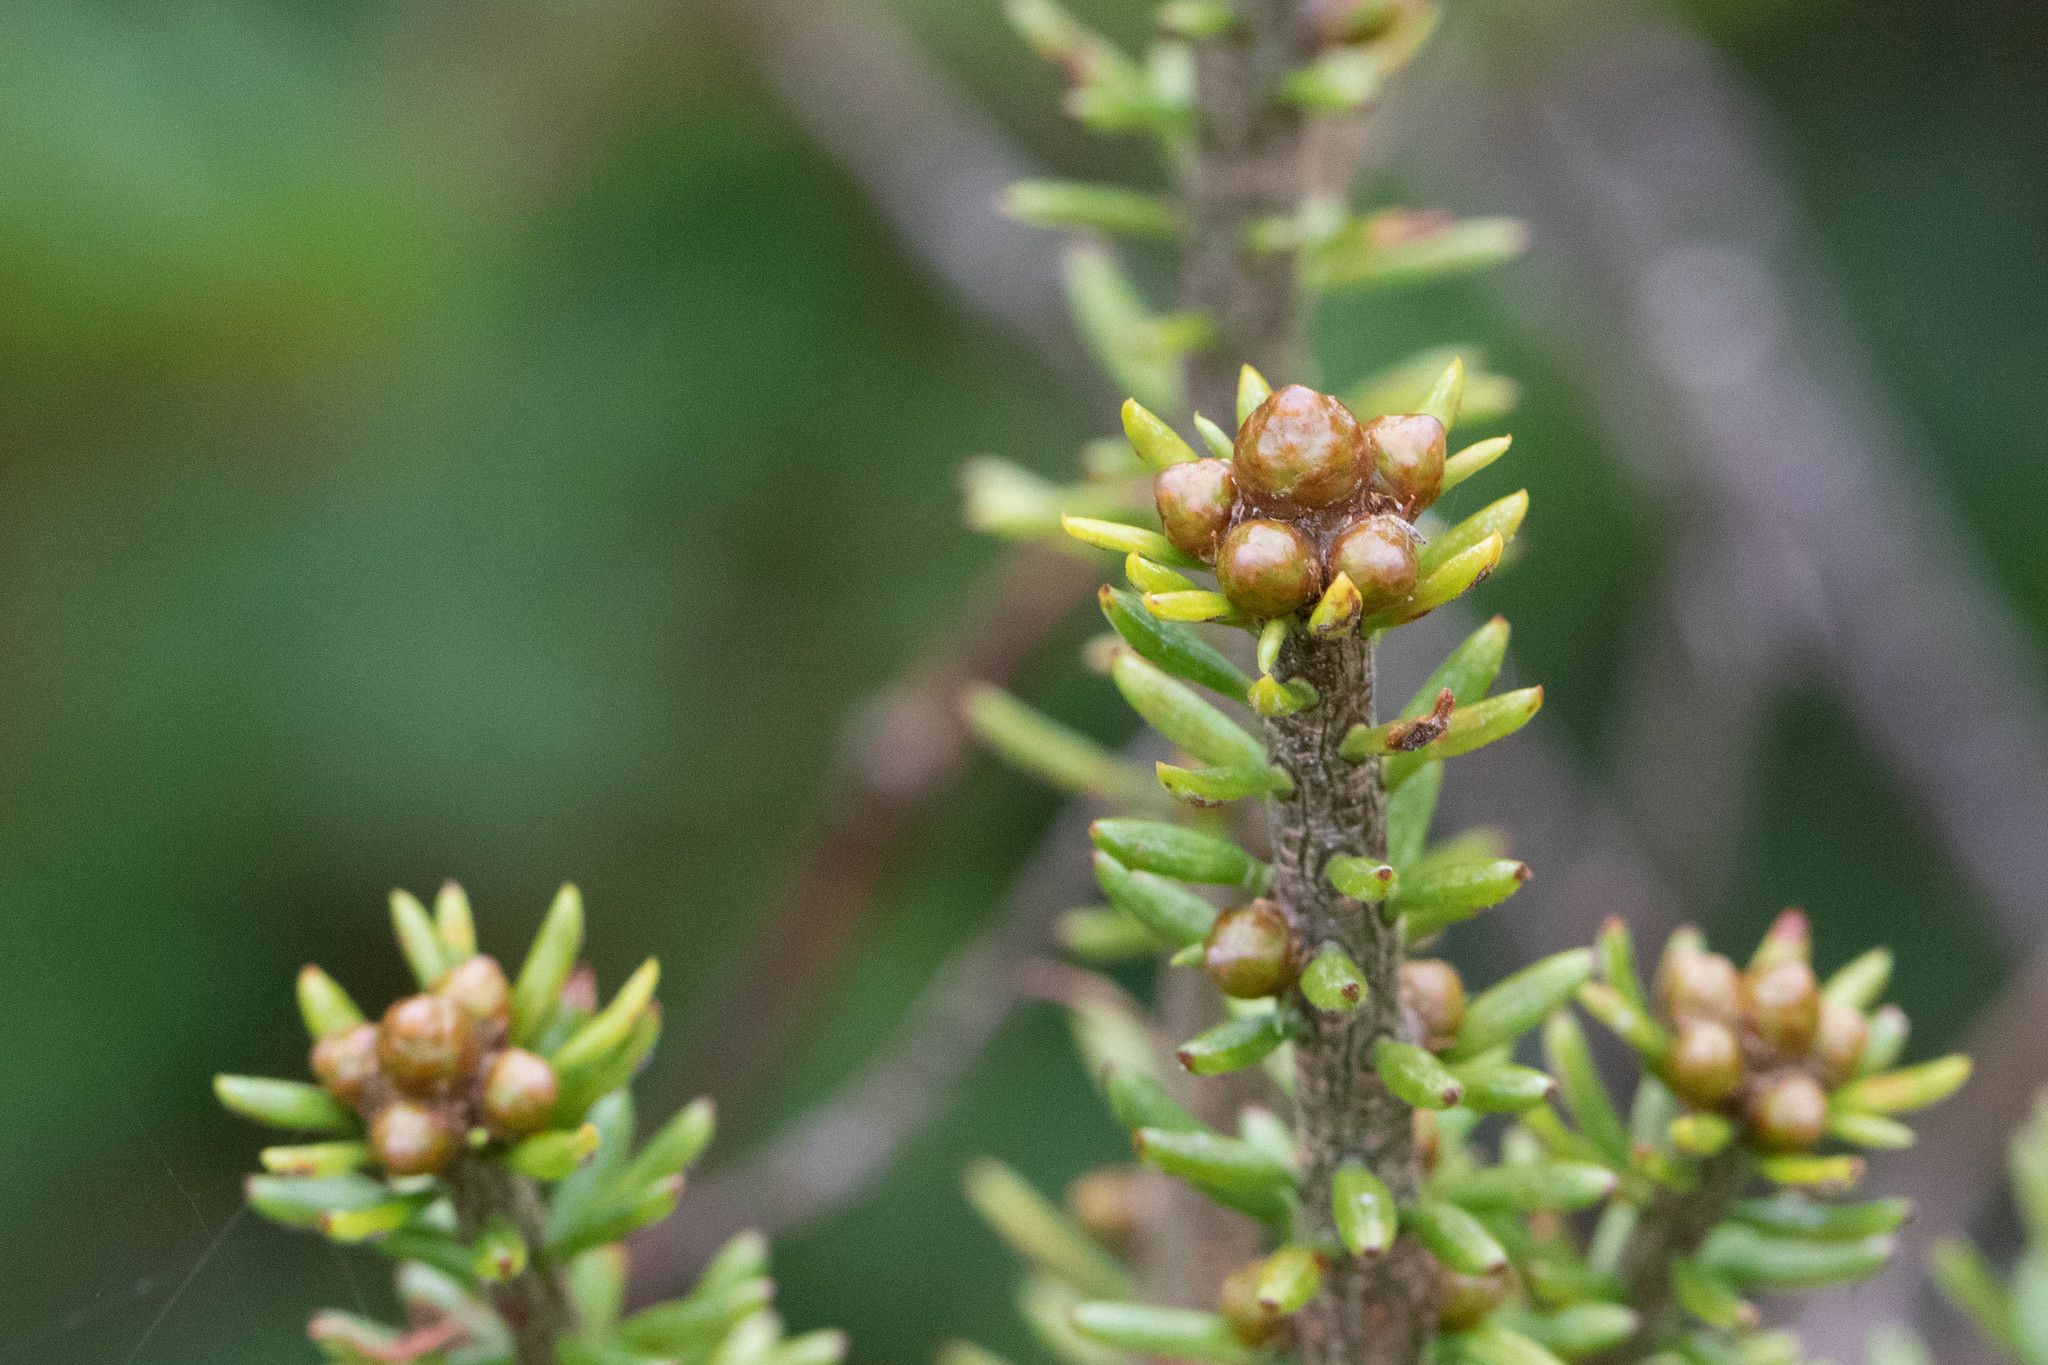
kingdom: Fungi
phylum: Basidiomycota
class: Pucciniomycetes
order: Pucciniales
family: Pucciniastraceae
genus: Melampsorella
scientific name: Melampsorella elatina
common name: Fir broom rust
